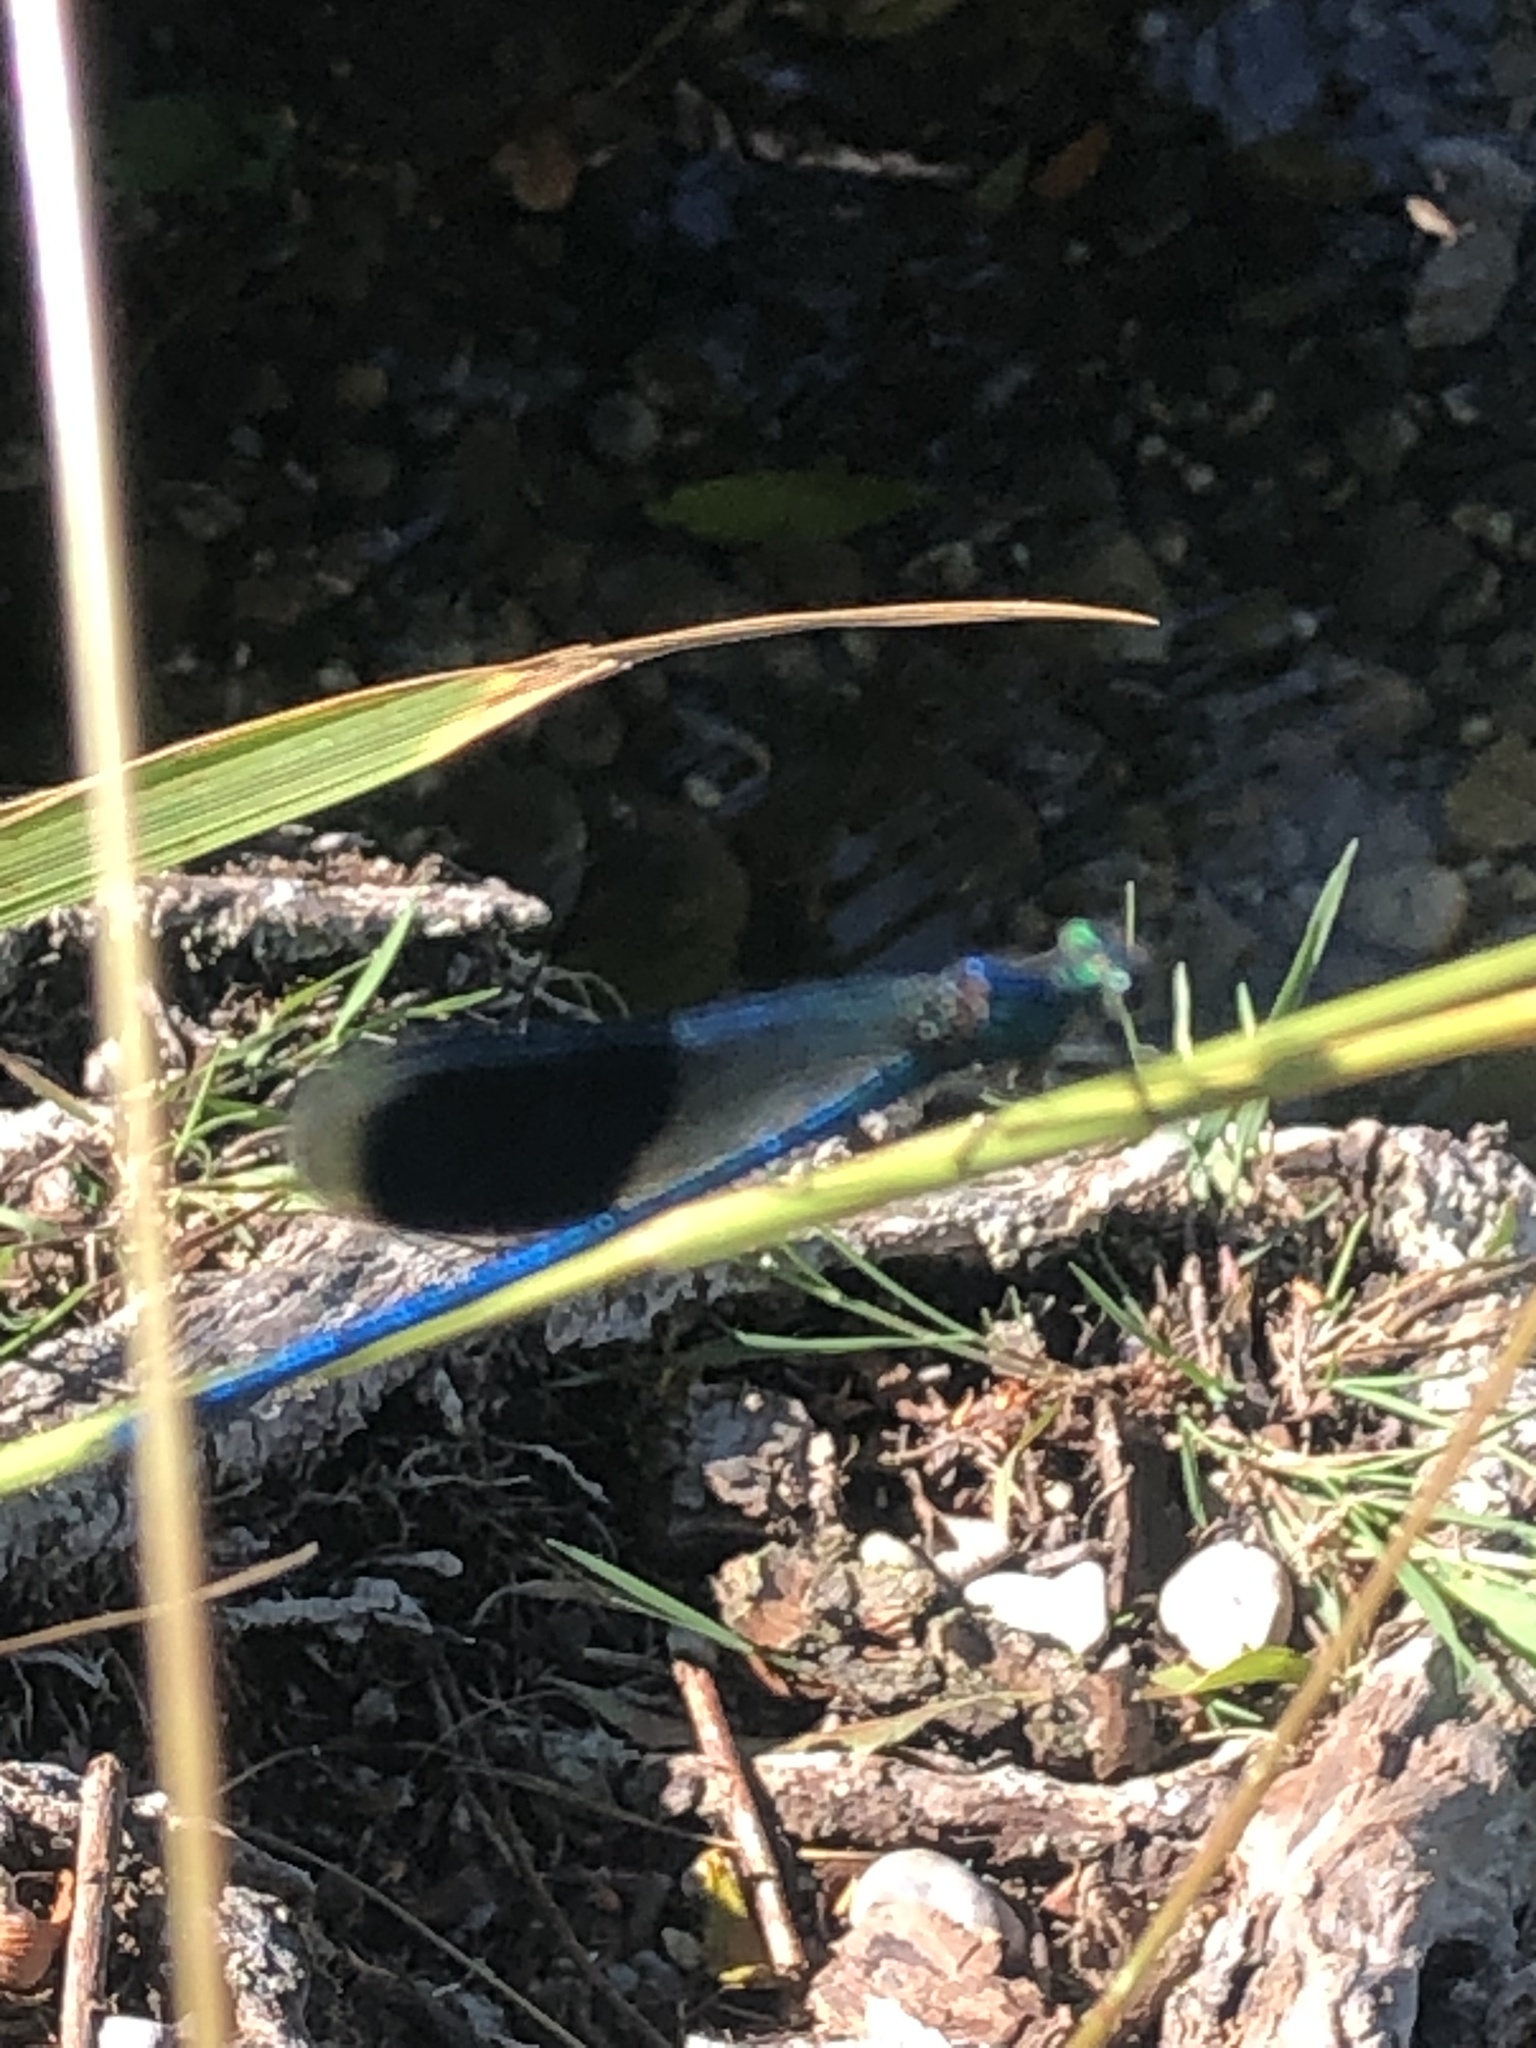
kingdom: Animalia
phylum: Arthropoda
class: Insecta
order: Odonata
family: Calopterygidae
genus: Calopteryx
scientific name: Calopteryx splendens
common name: Banded demoiselle
